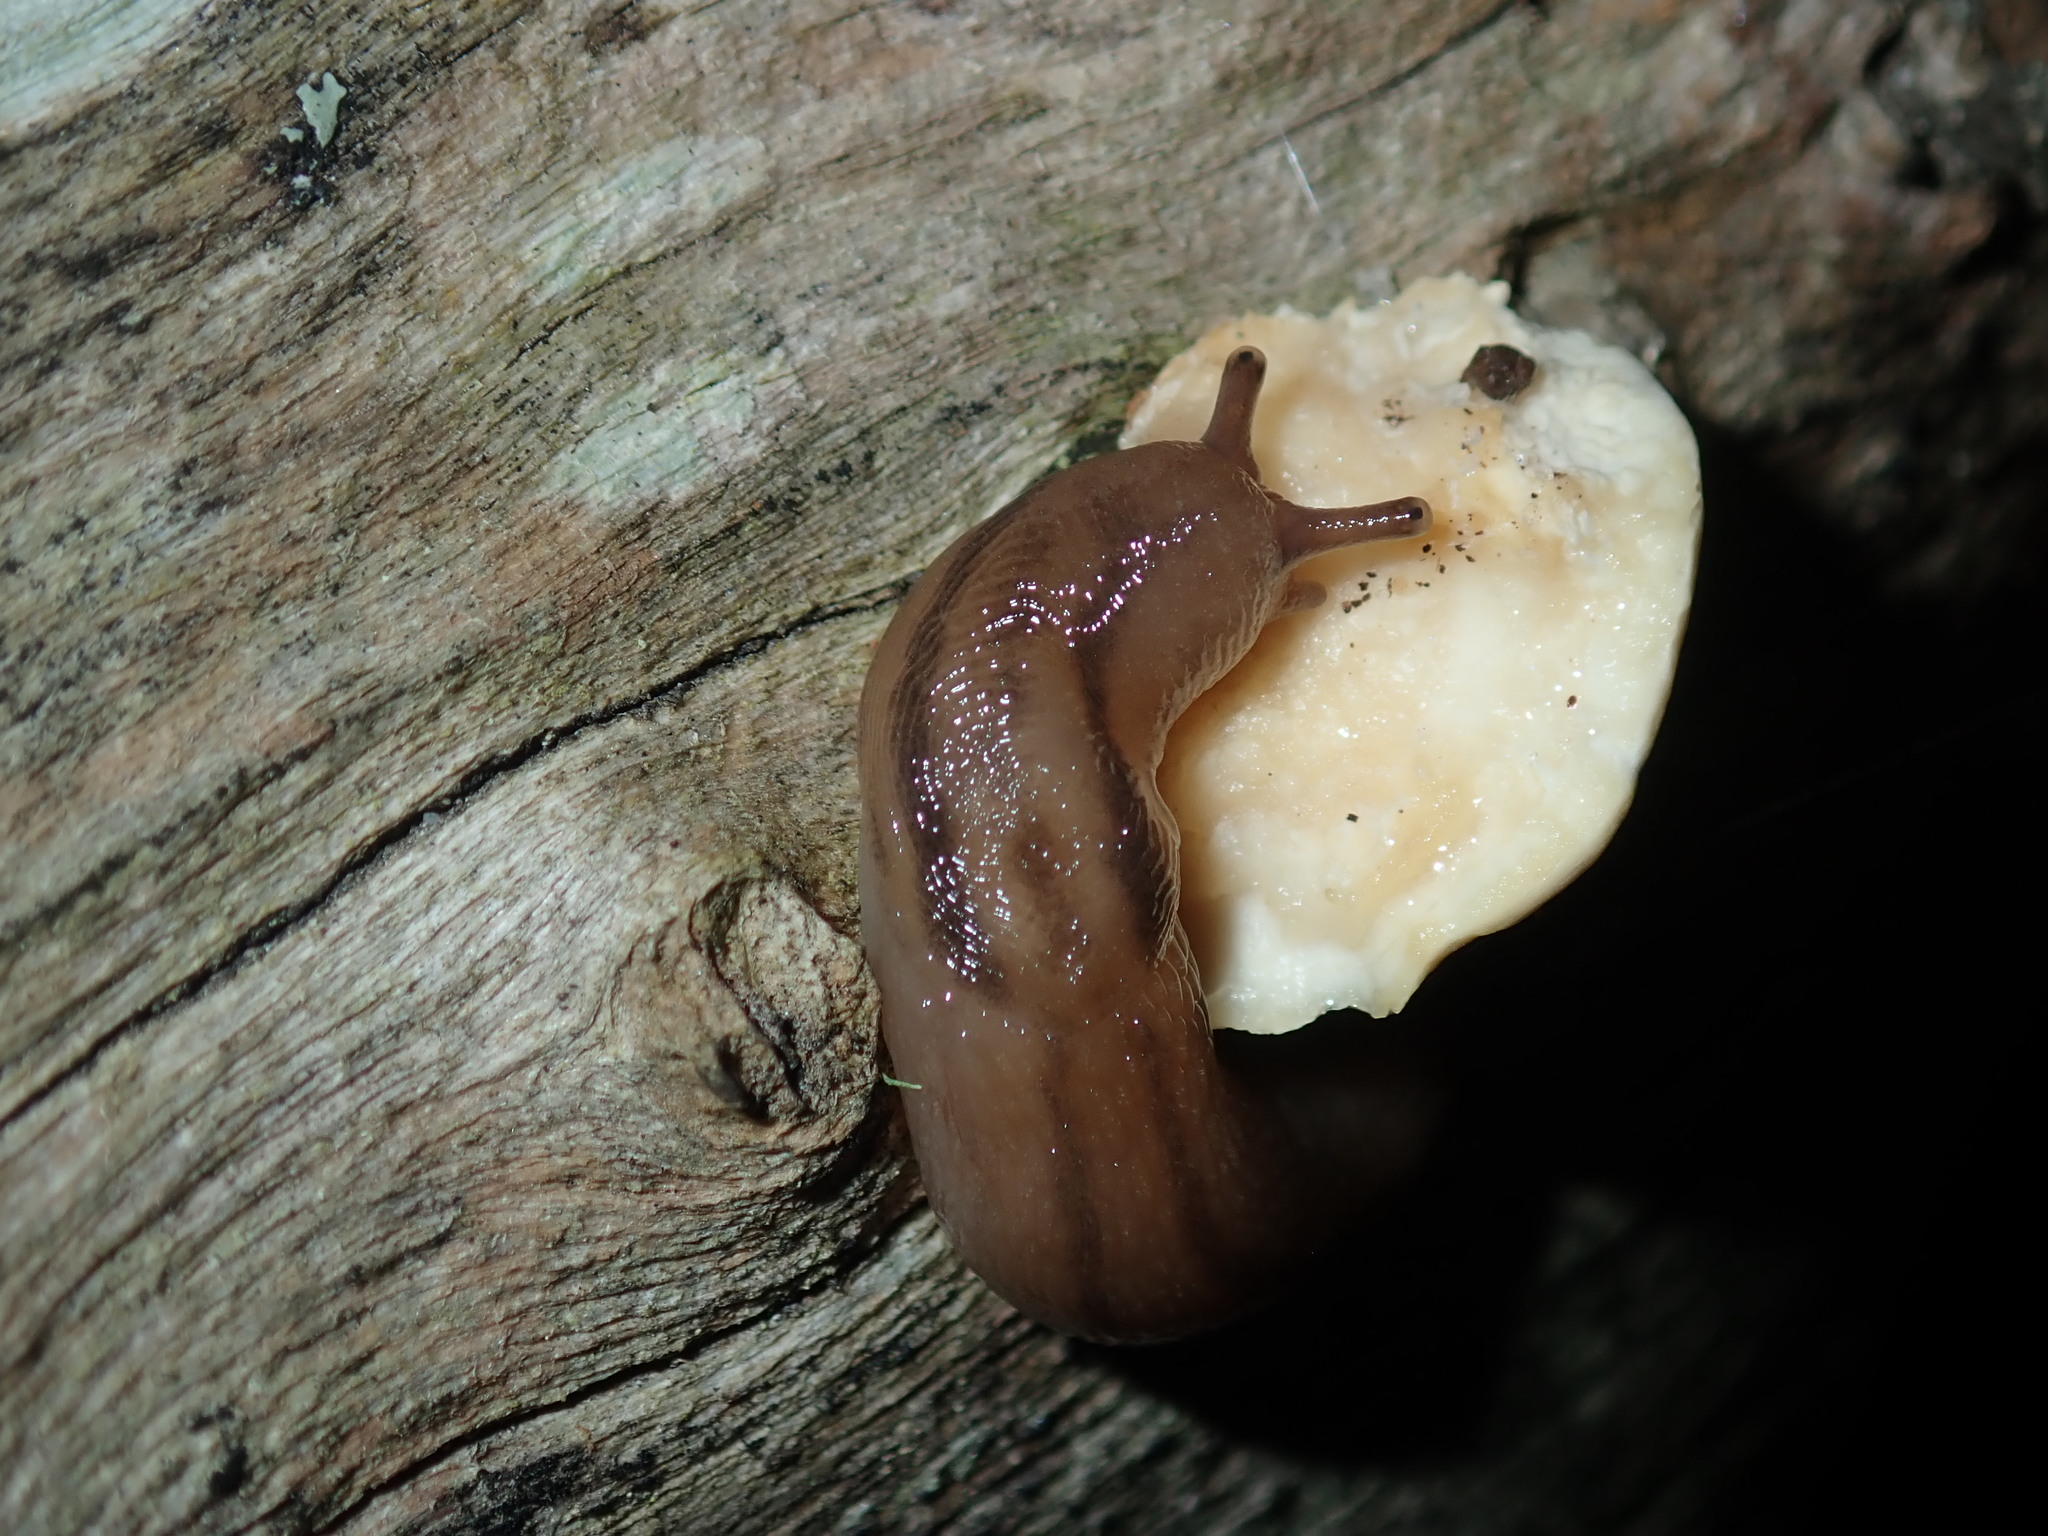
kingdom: Animalia
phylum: Mollusca
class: Gastropoda
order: Stylommatophora
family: Limacidae
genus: Ambigolimax
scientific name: Ambigolimax
